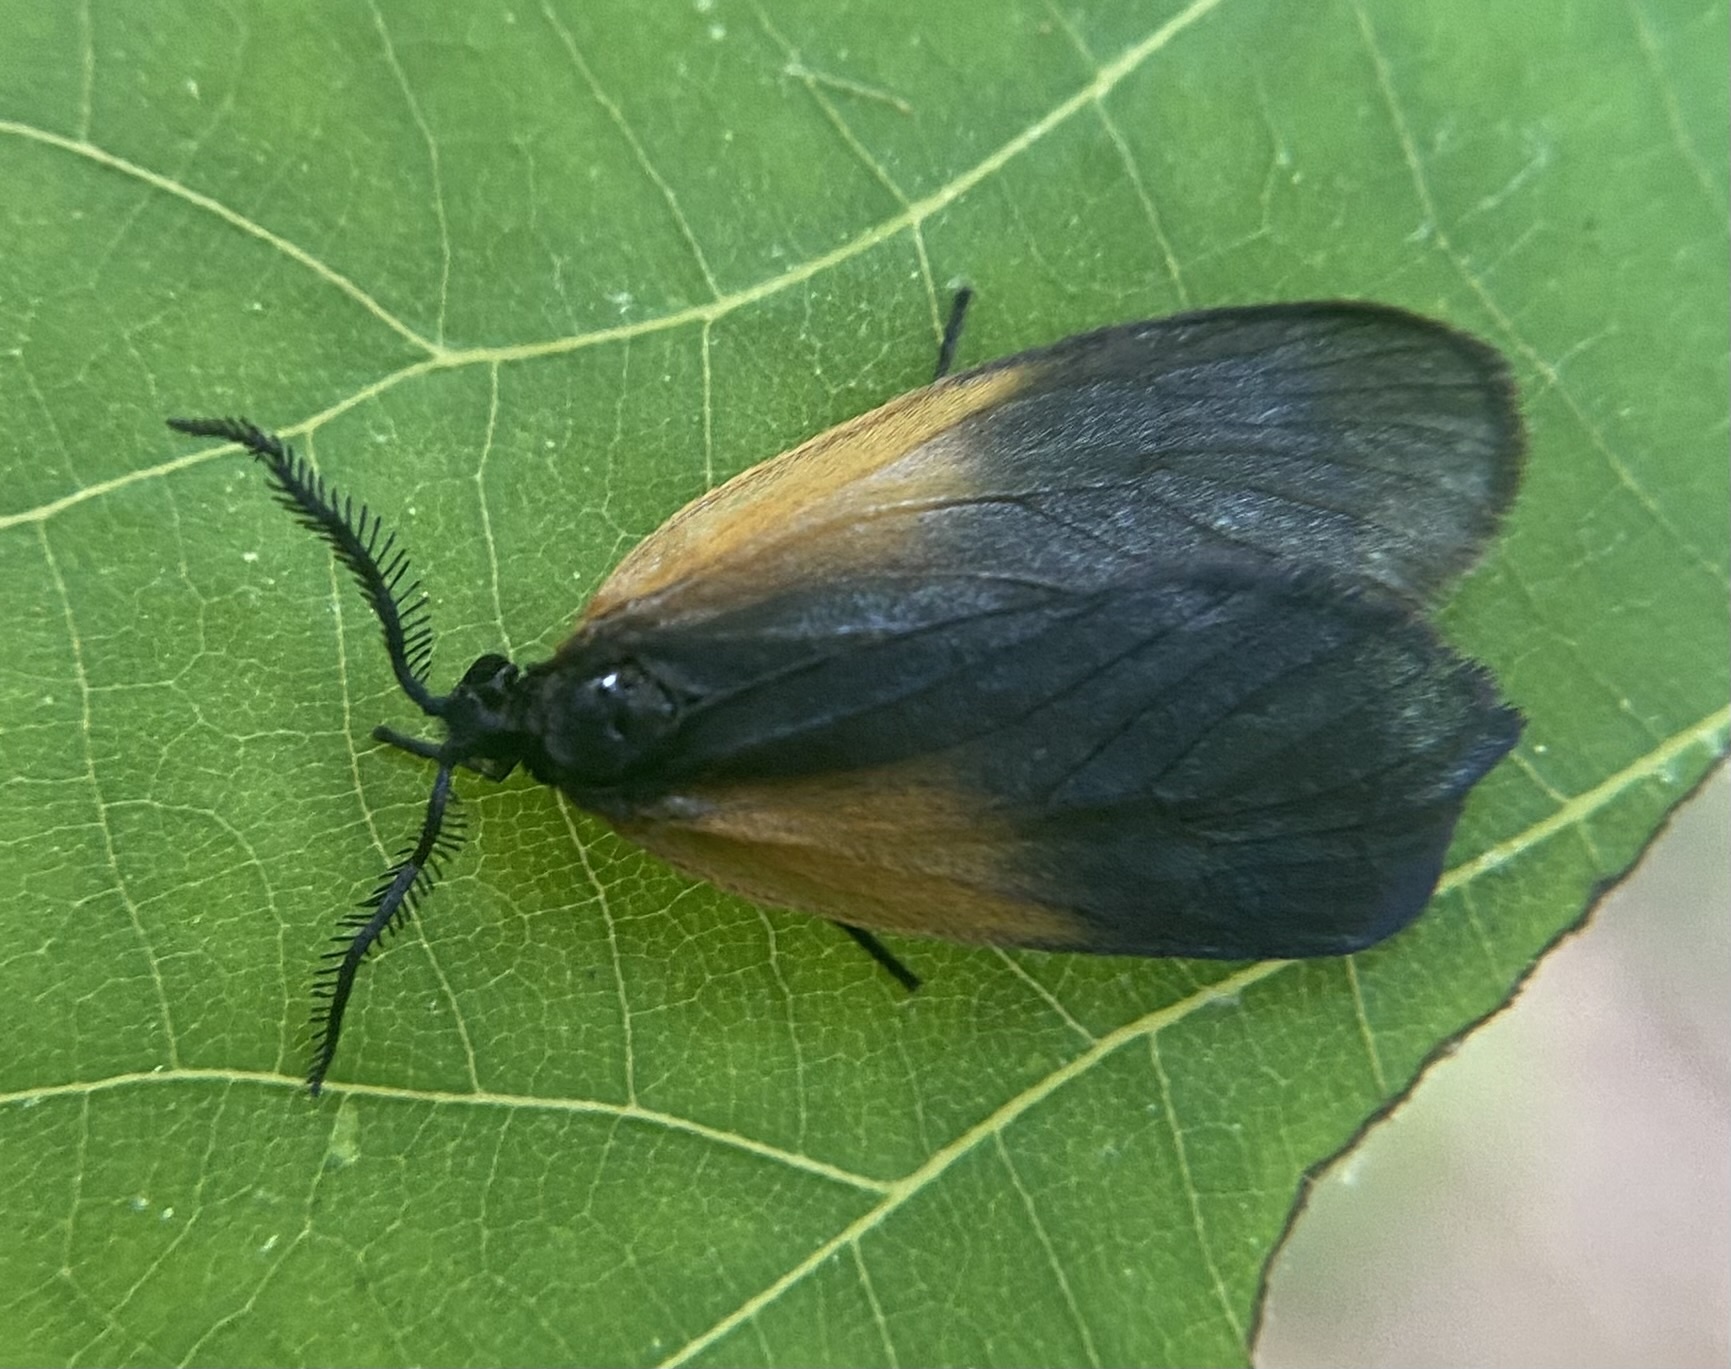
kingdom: Animalia
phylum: Arthropoda
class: Insecta
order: Lepidoptera
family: Zygaenidae
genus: Malthaca
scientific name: Malthaca dimidiata
